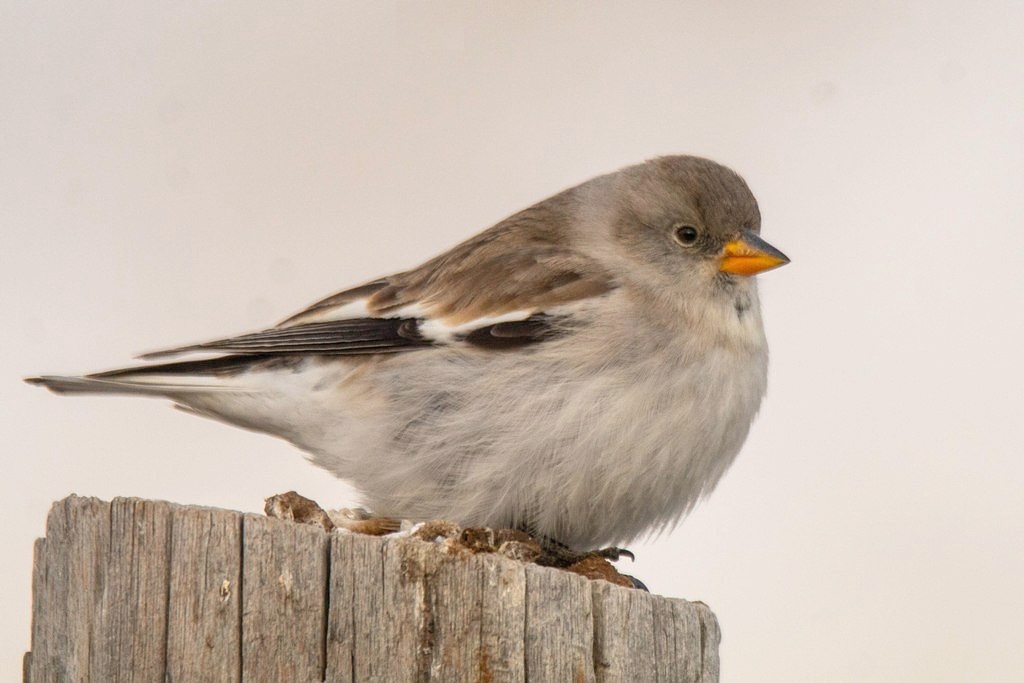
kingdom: Animalia
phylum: Chordata
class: Aves
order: Passeriformes
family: Passeridae
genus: Montifringilla
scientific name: Montifringilla nivalis
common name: White-winged snowfinch
